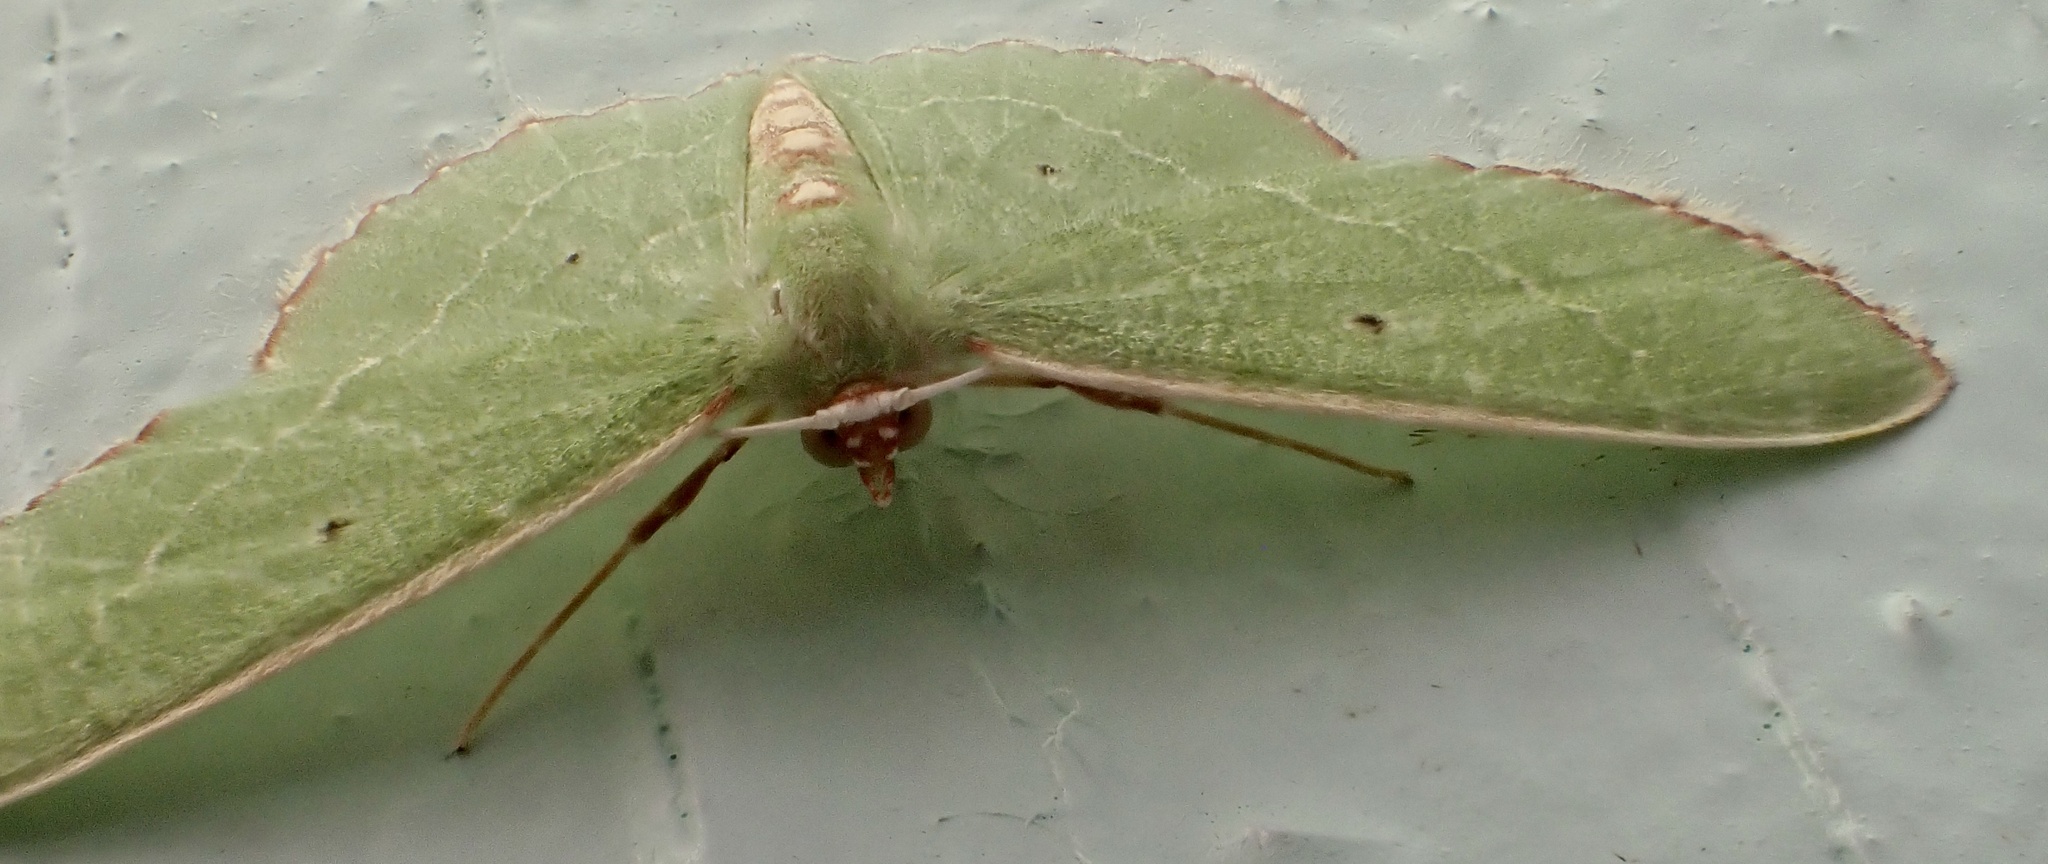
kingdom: Animalia
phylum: Arthropoda
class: Insecta
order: Lepidoptera
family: Geometridae
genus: Nemoria
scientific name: Nemoria lixaria
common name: Red-bordered emerald
